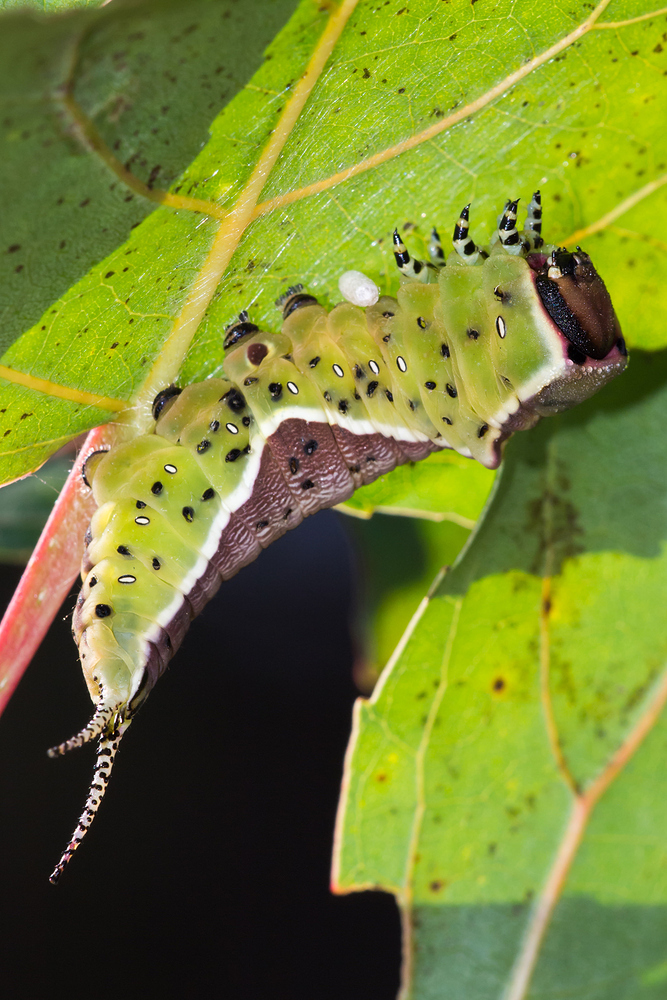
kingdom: Animalia
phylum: Arthropoda
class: Insecta
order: Lepidoptera
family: Notodontidae
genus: Cerura
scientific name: Cerura vinula
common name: Puss moth
